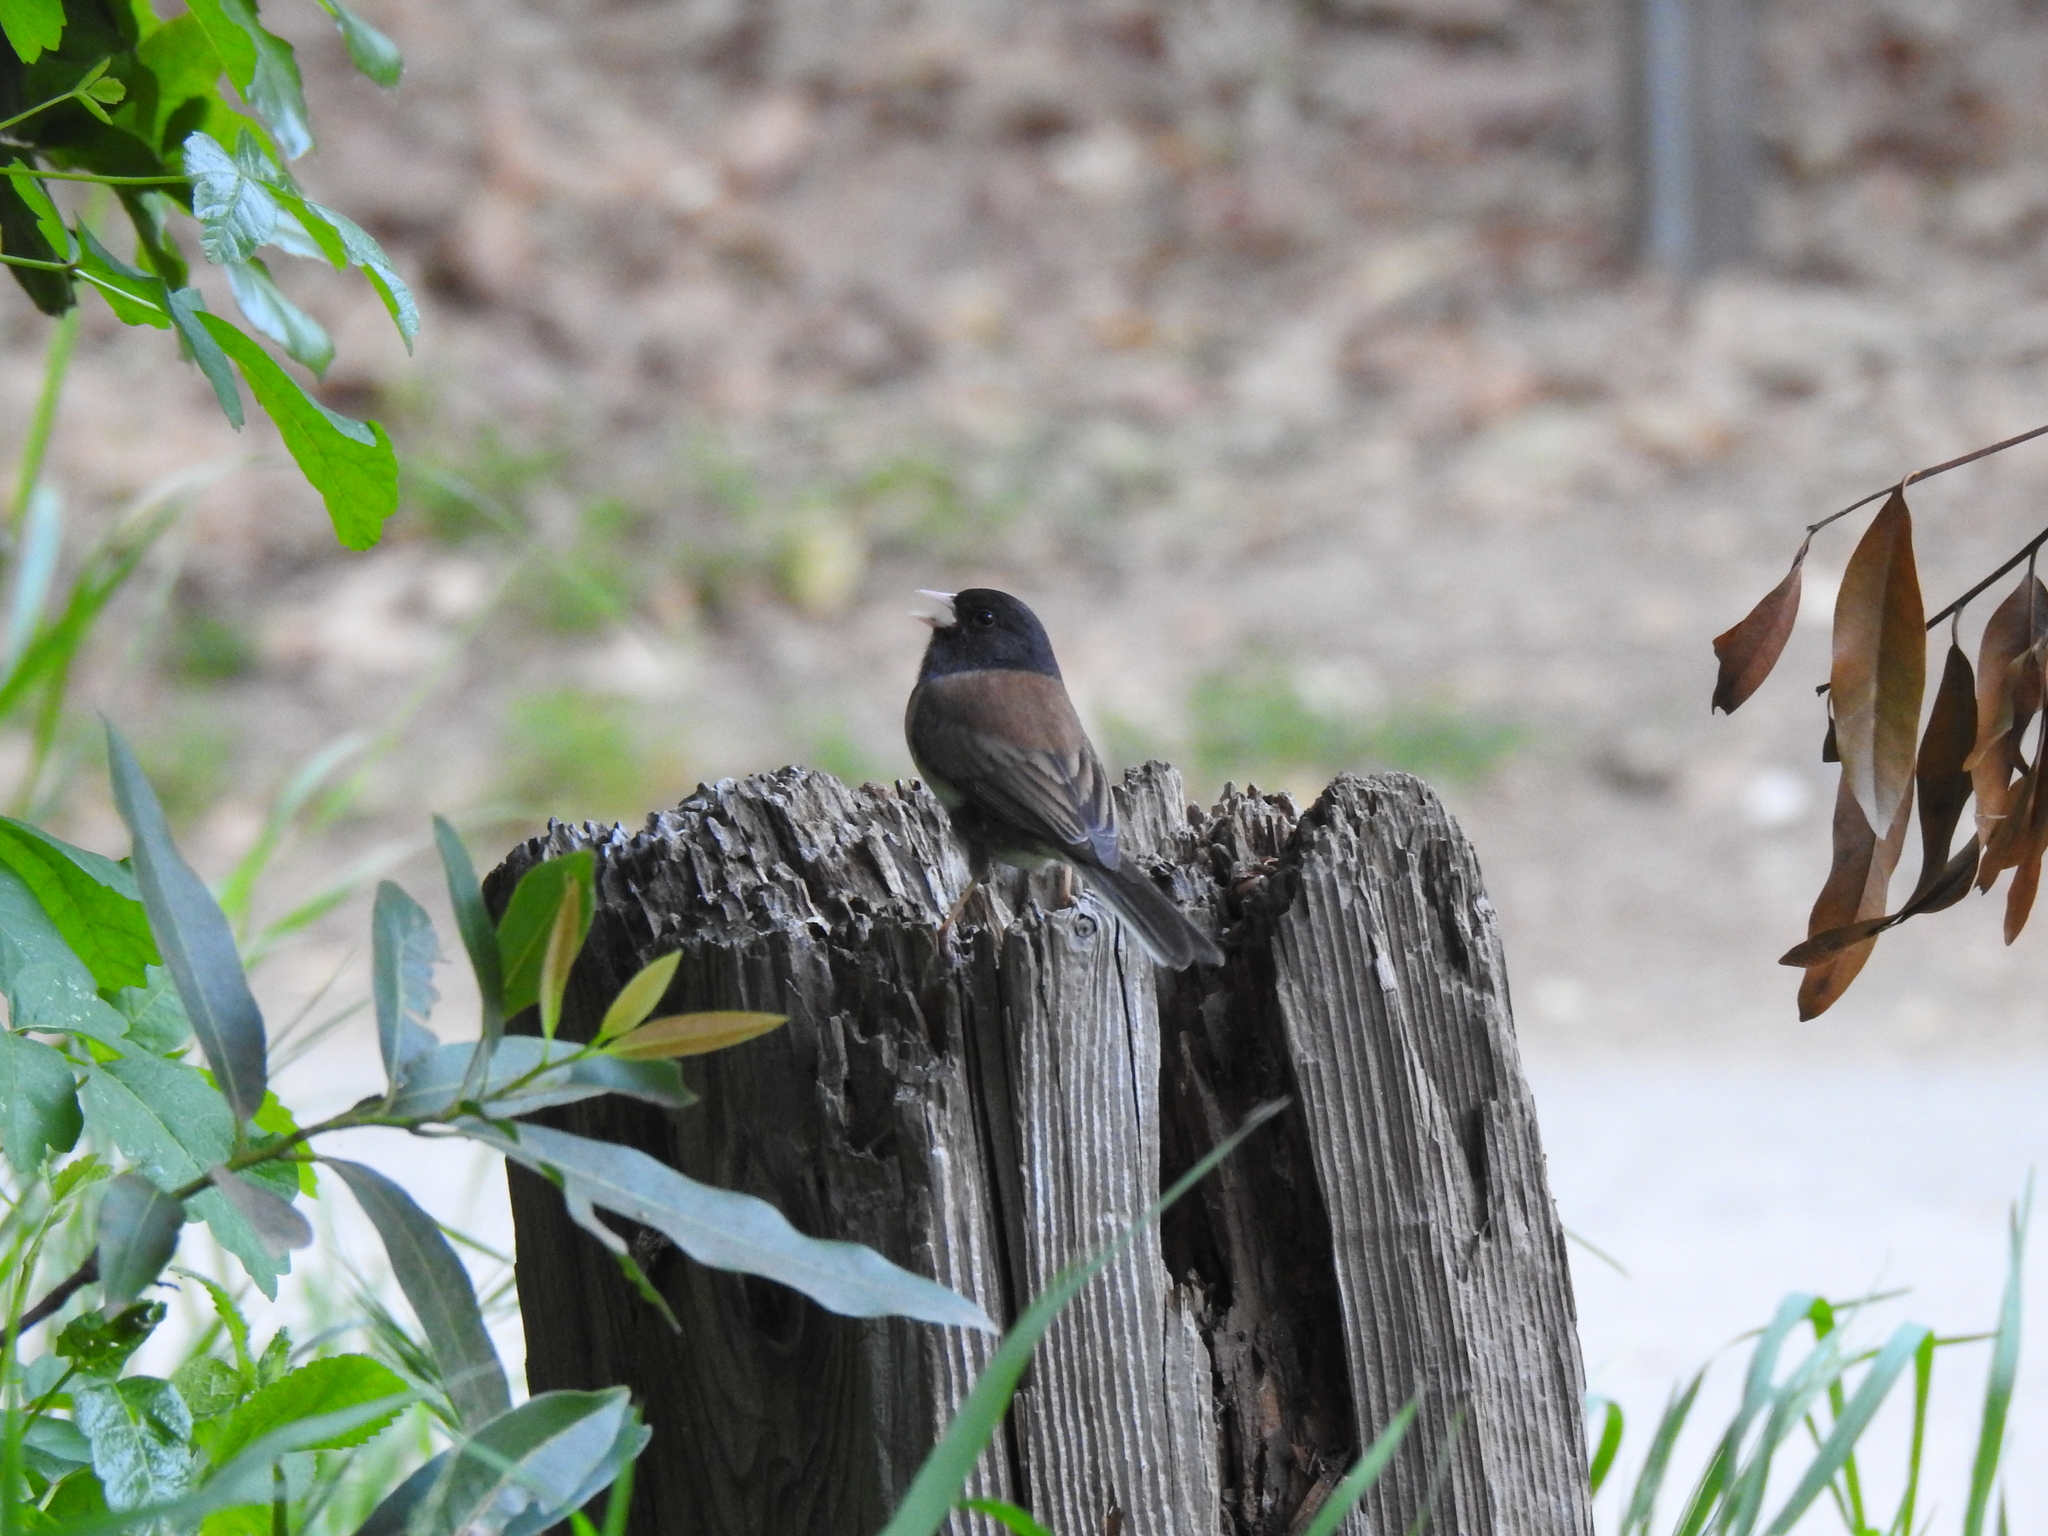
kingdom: Animalia
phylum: Chordata
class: Aves
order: Passeriformes
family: Passerellidae
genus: Junco
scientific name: Junco hyemalis
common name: Dark-eyed junco
